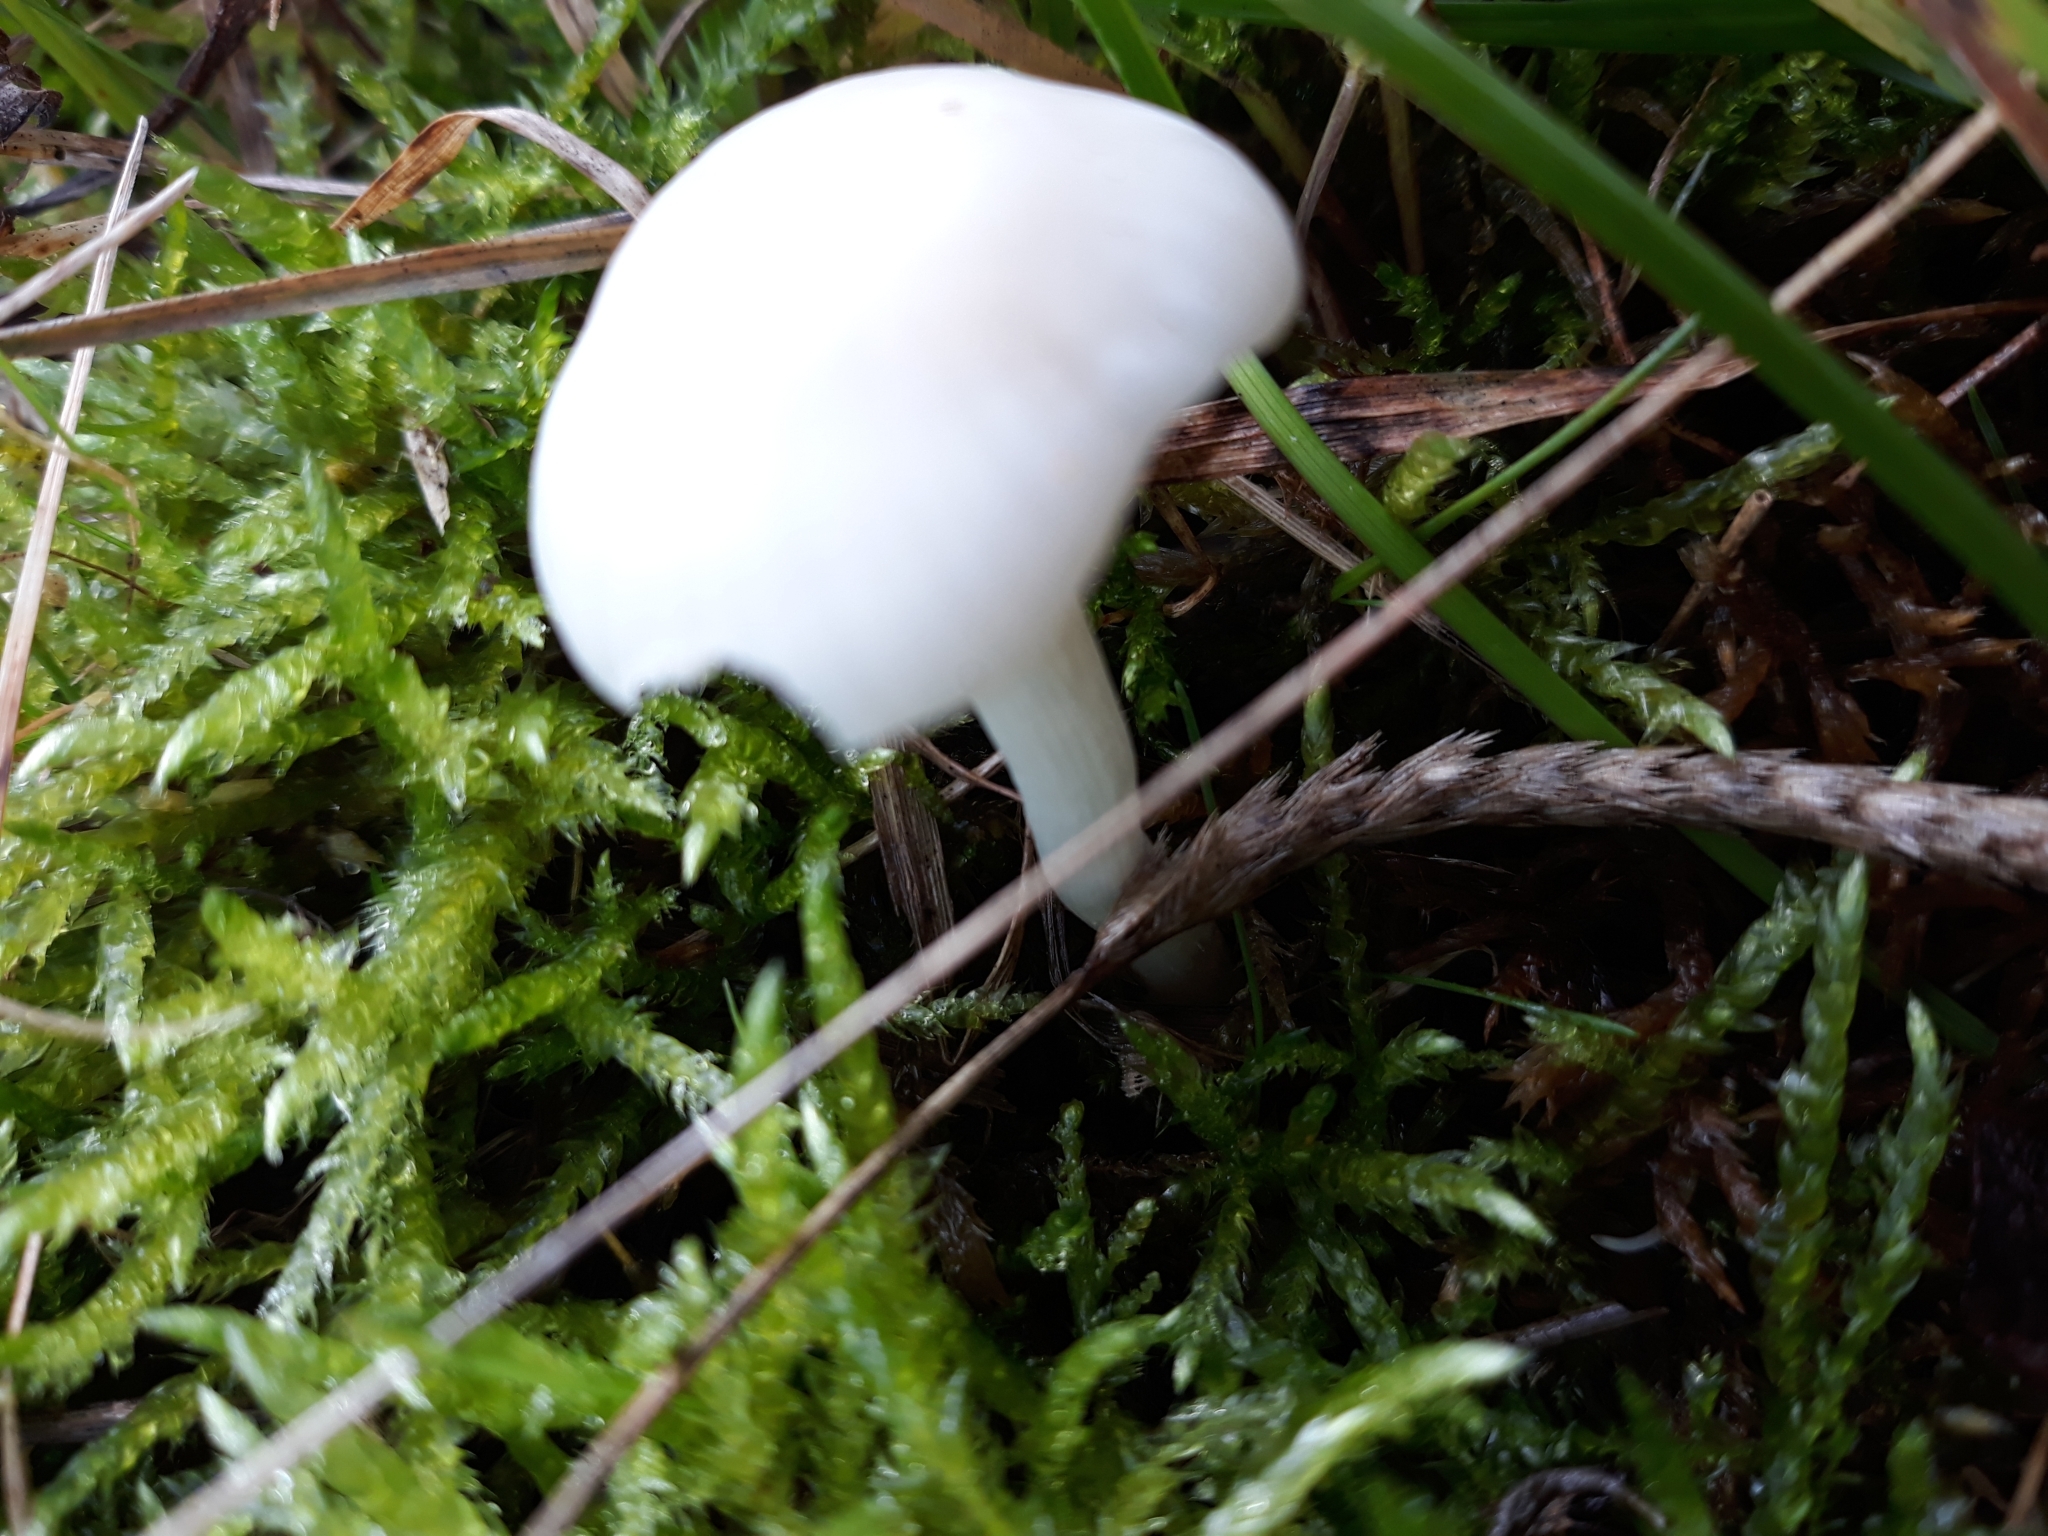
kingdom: Fungi
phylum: Basidiomycota
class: Agaricomycetes
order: Agaricales
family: Hygrophoraceae
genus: Cuphophyllus
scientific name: Cuphophyllus virgineus
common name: Snowy waxcap
